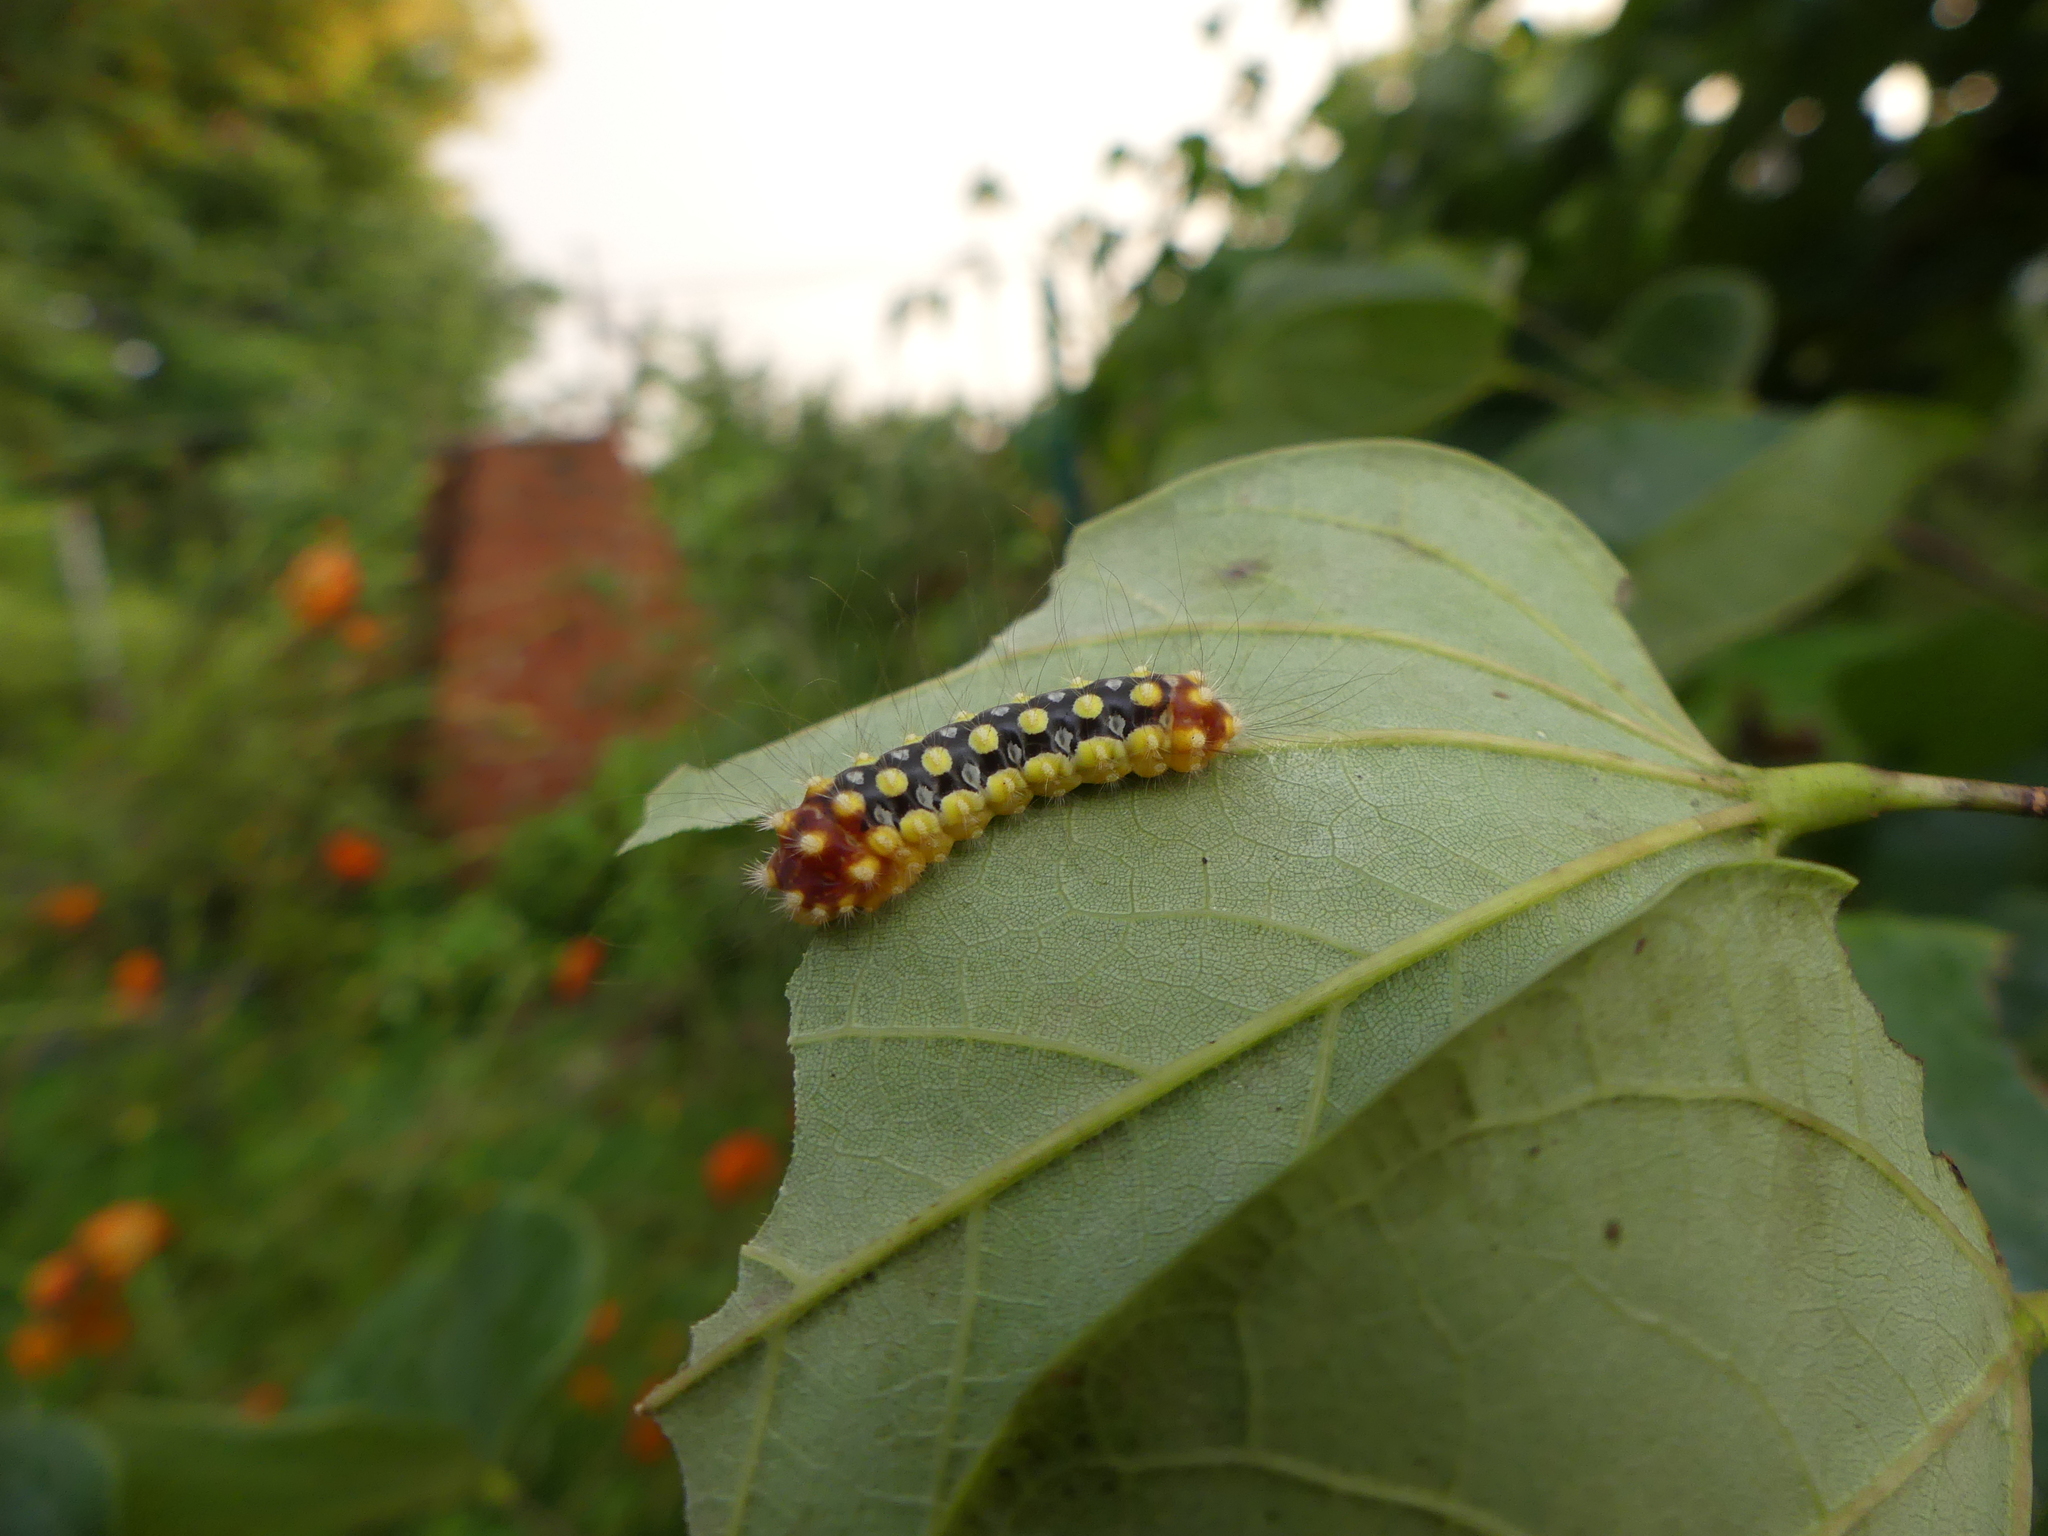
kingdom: Animalia
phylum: Arthropoda
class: Insecta
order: Lepidoptera
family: Megalopygidae
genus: Norape
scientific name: Norape cretata
